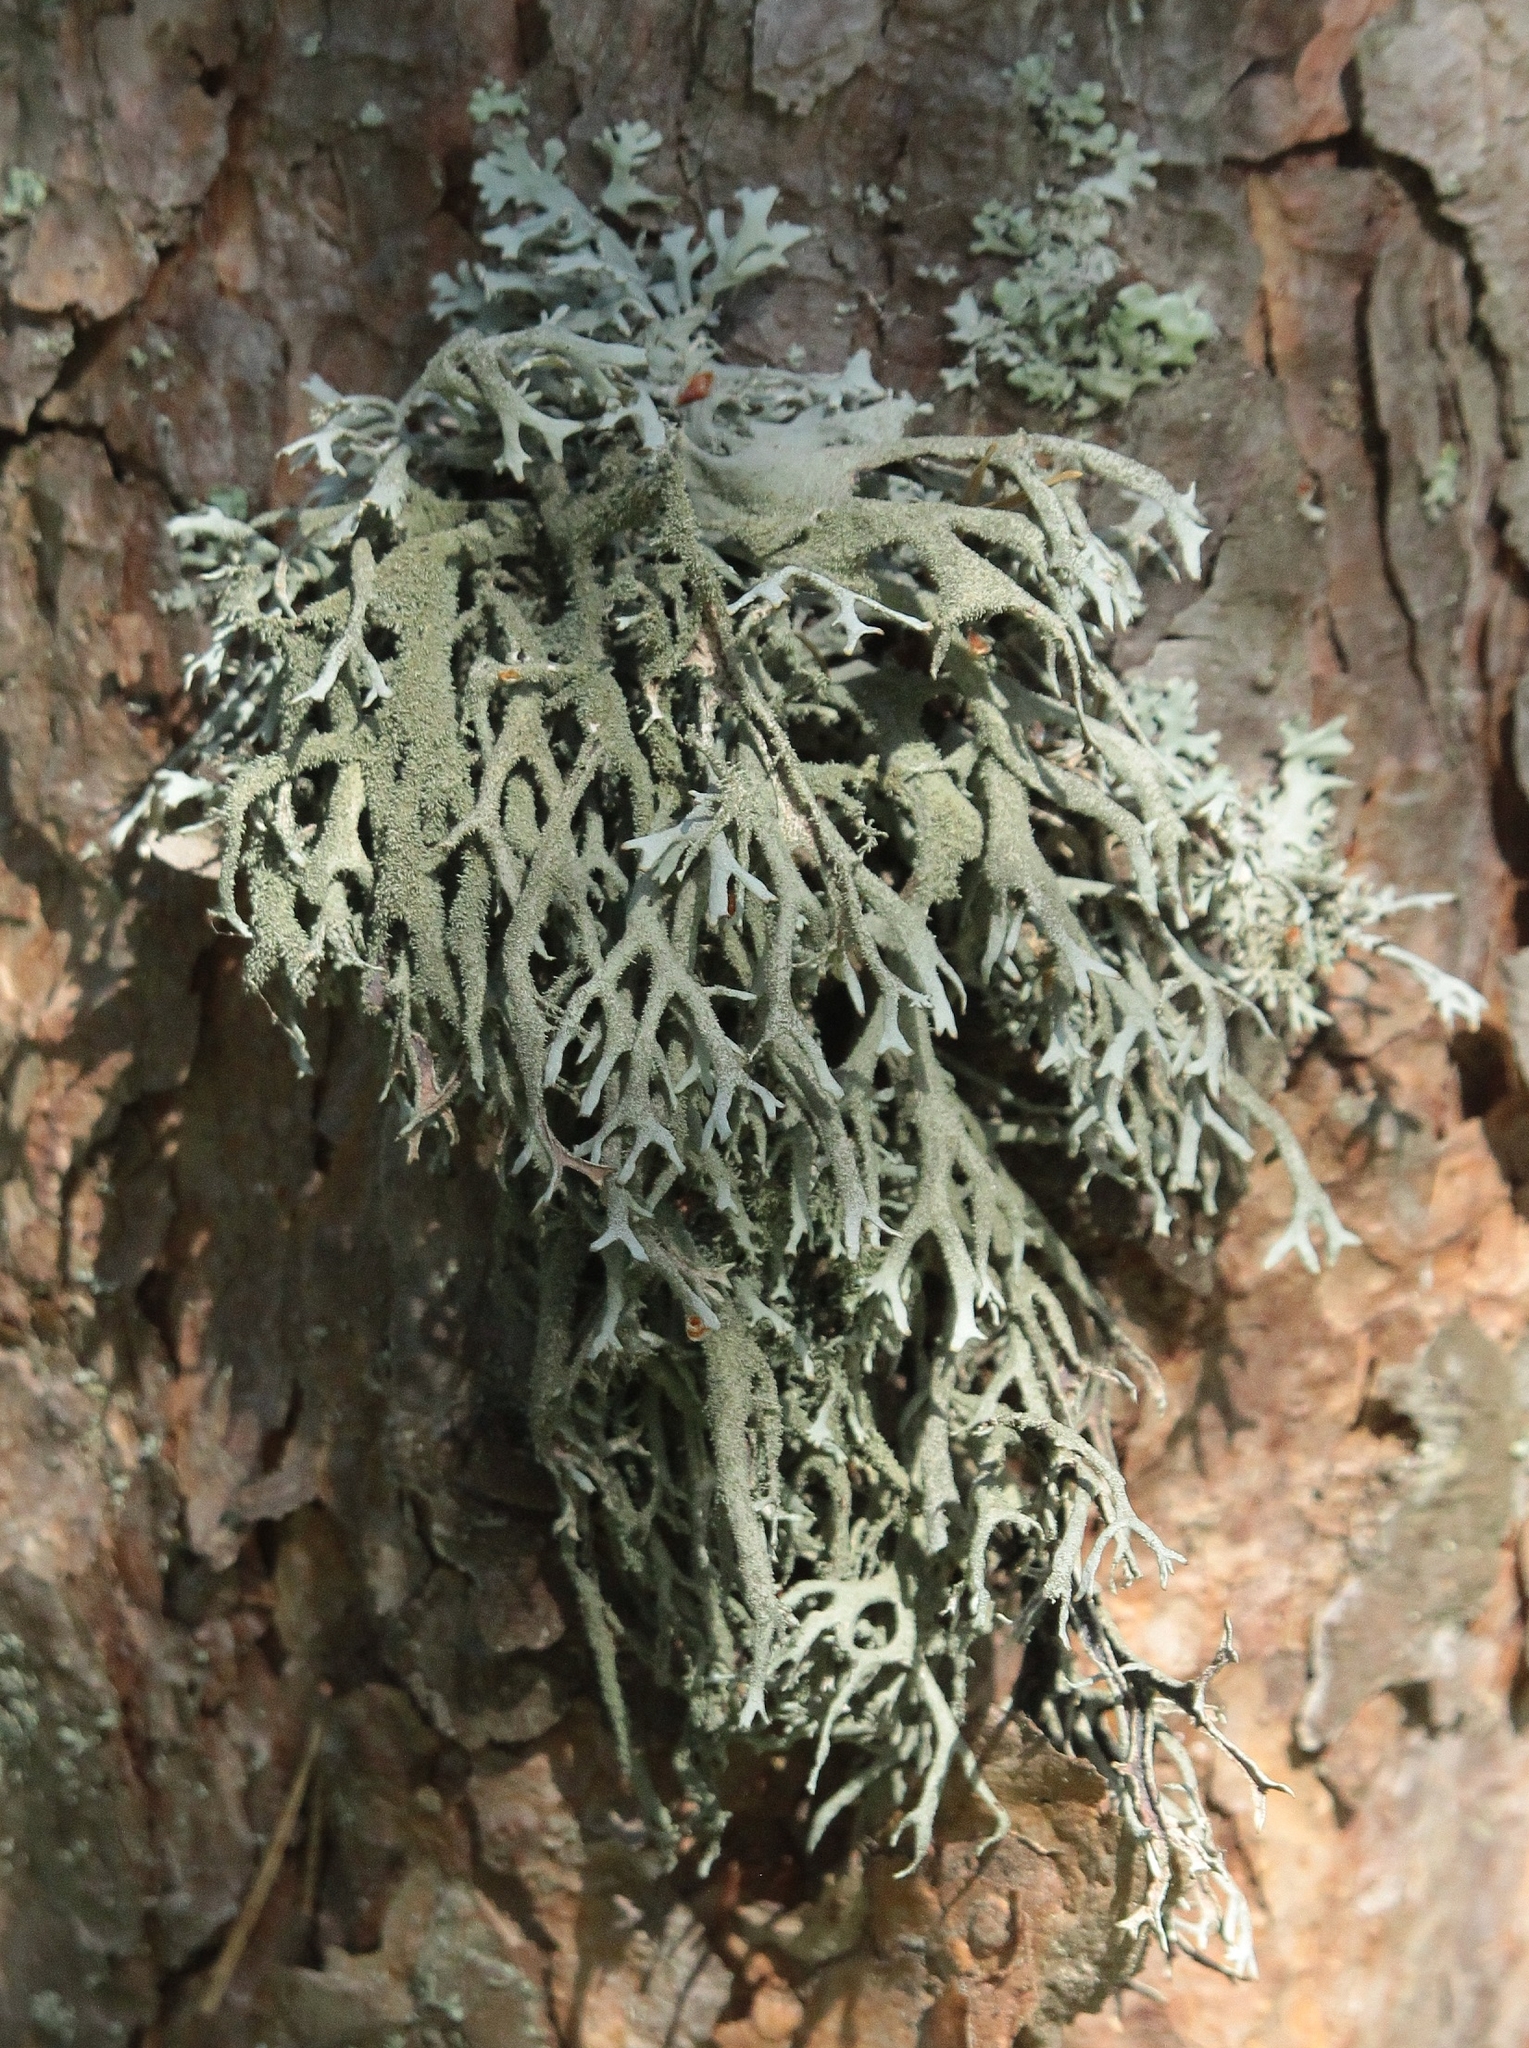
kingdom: Fungi
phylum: Ascomycota
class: Lecanoromycetes
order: Lecanorales
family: Parmeliaceae
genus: Pseudevernia
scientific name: Pseudevernia furfuracea
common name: Tree moss
